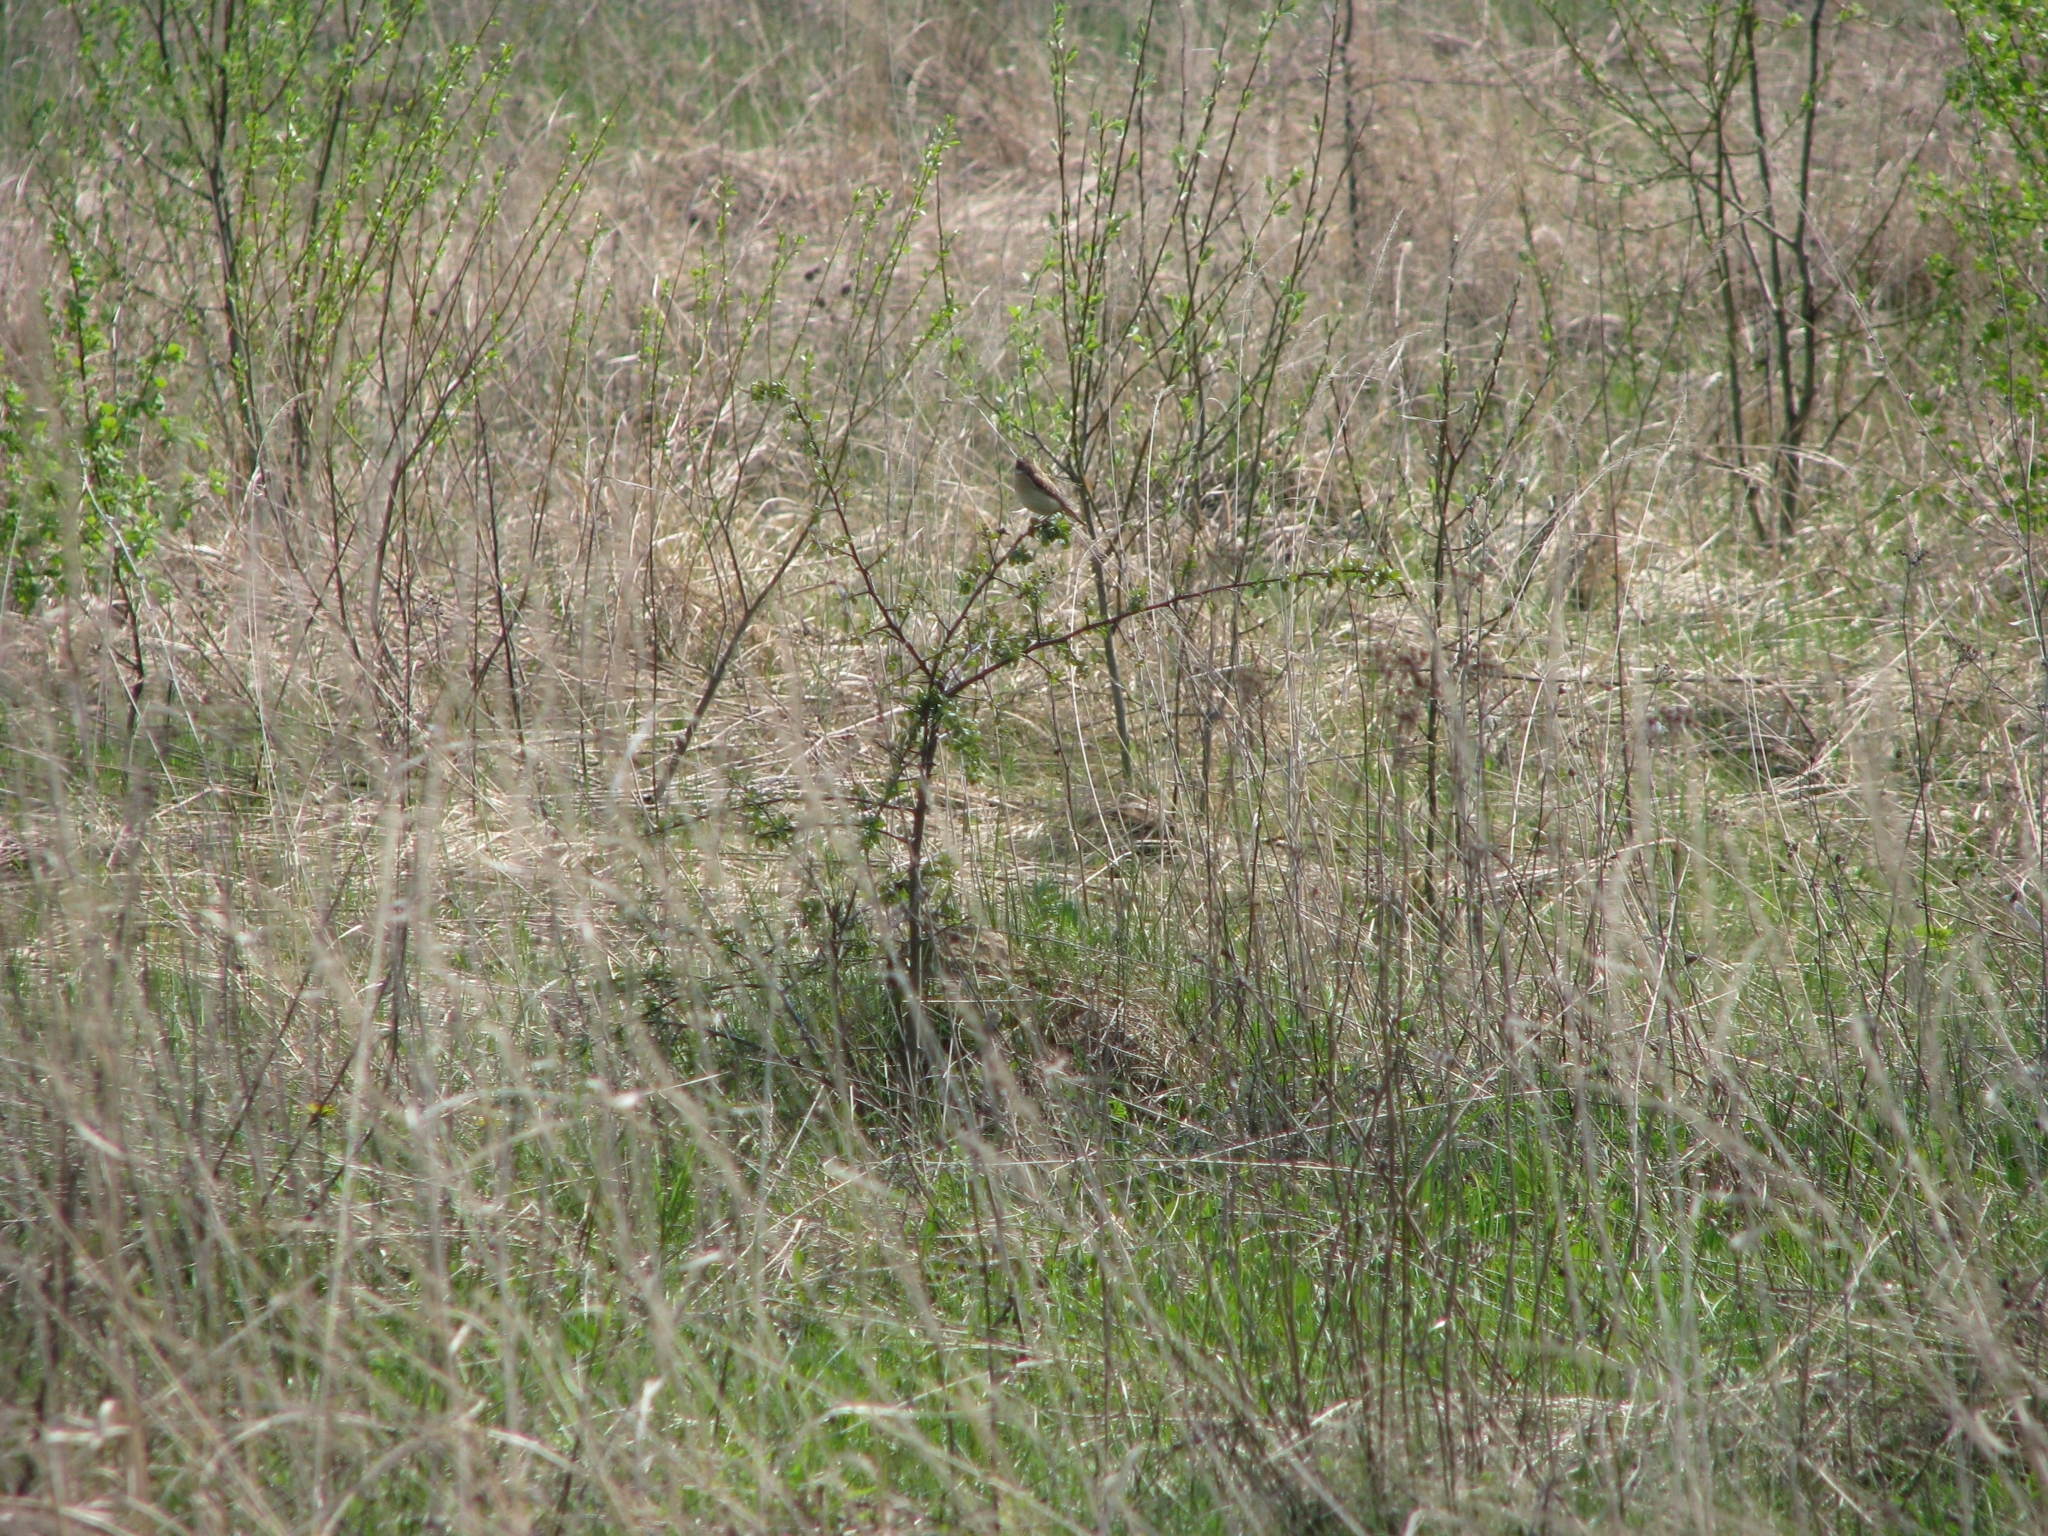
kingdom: Animalia
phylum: Chordata
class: Aves
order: Passeriformes
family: Muscicapidae
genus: Saxicola
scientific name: Saxicola rubetra
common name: Whinchat
